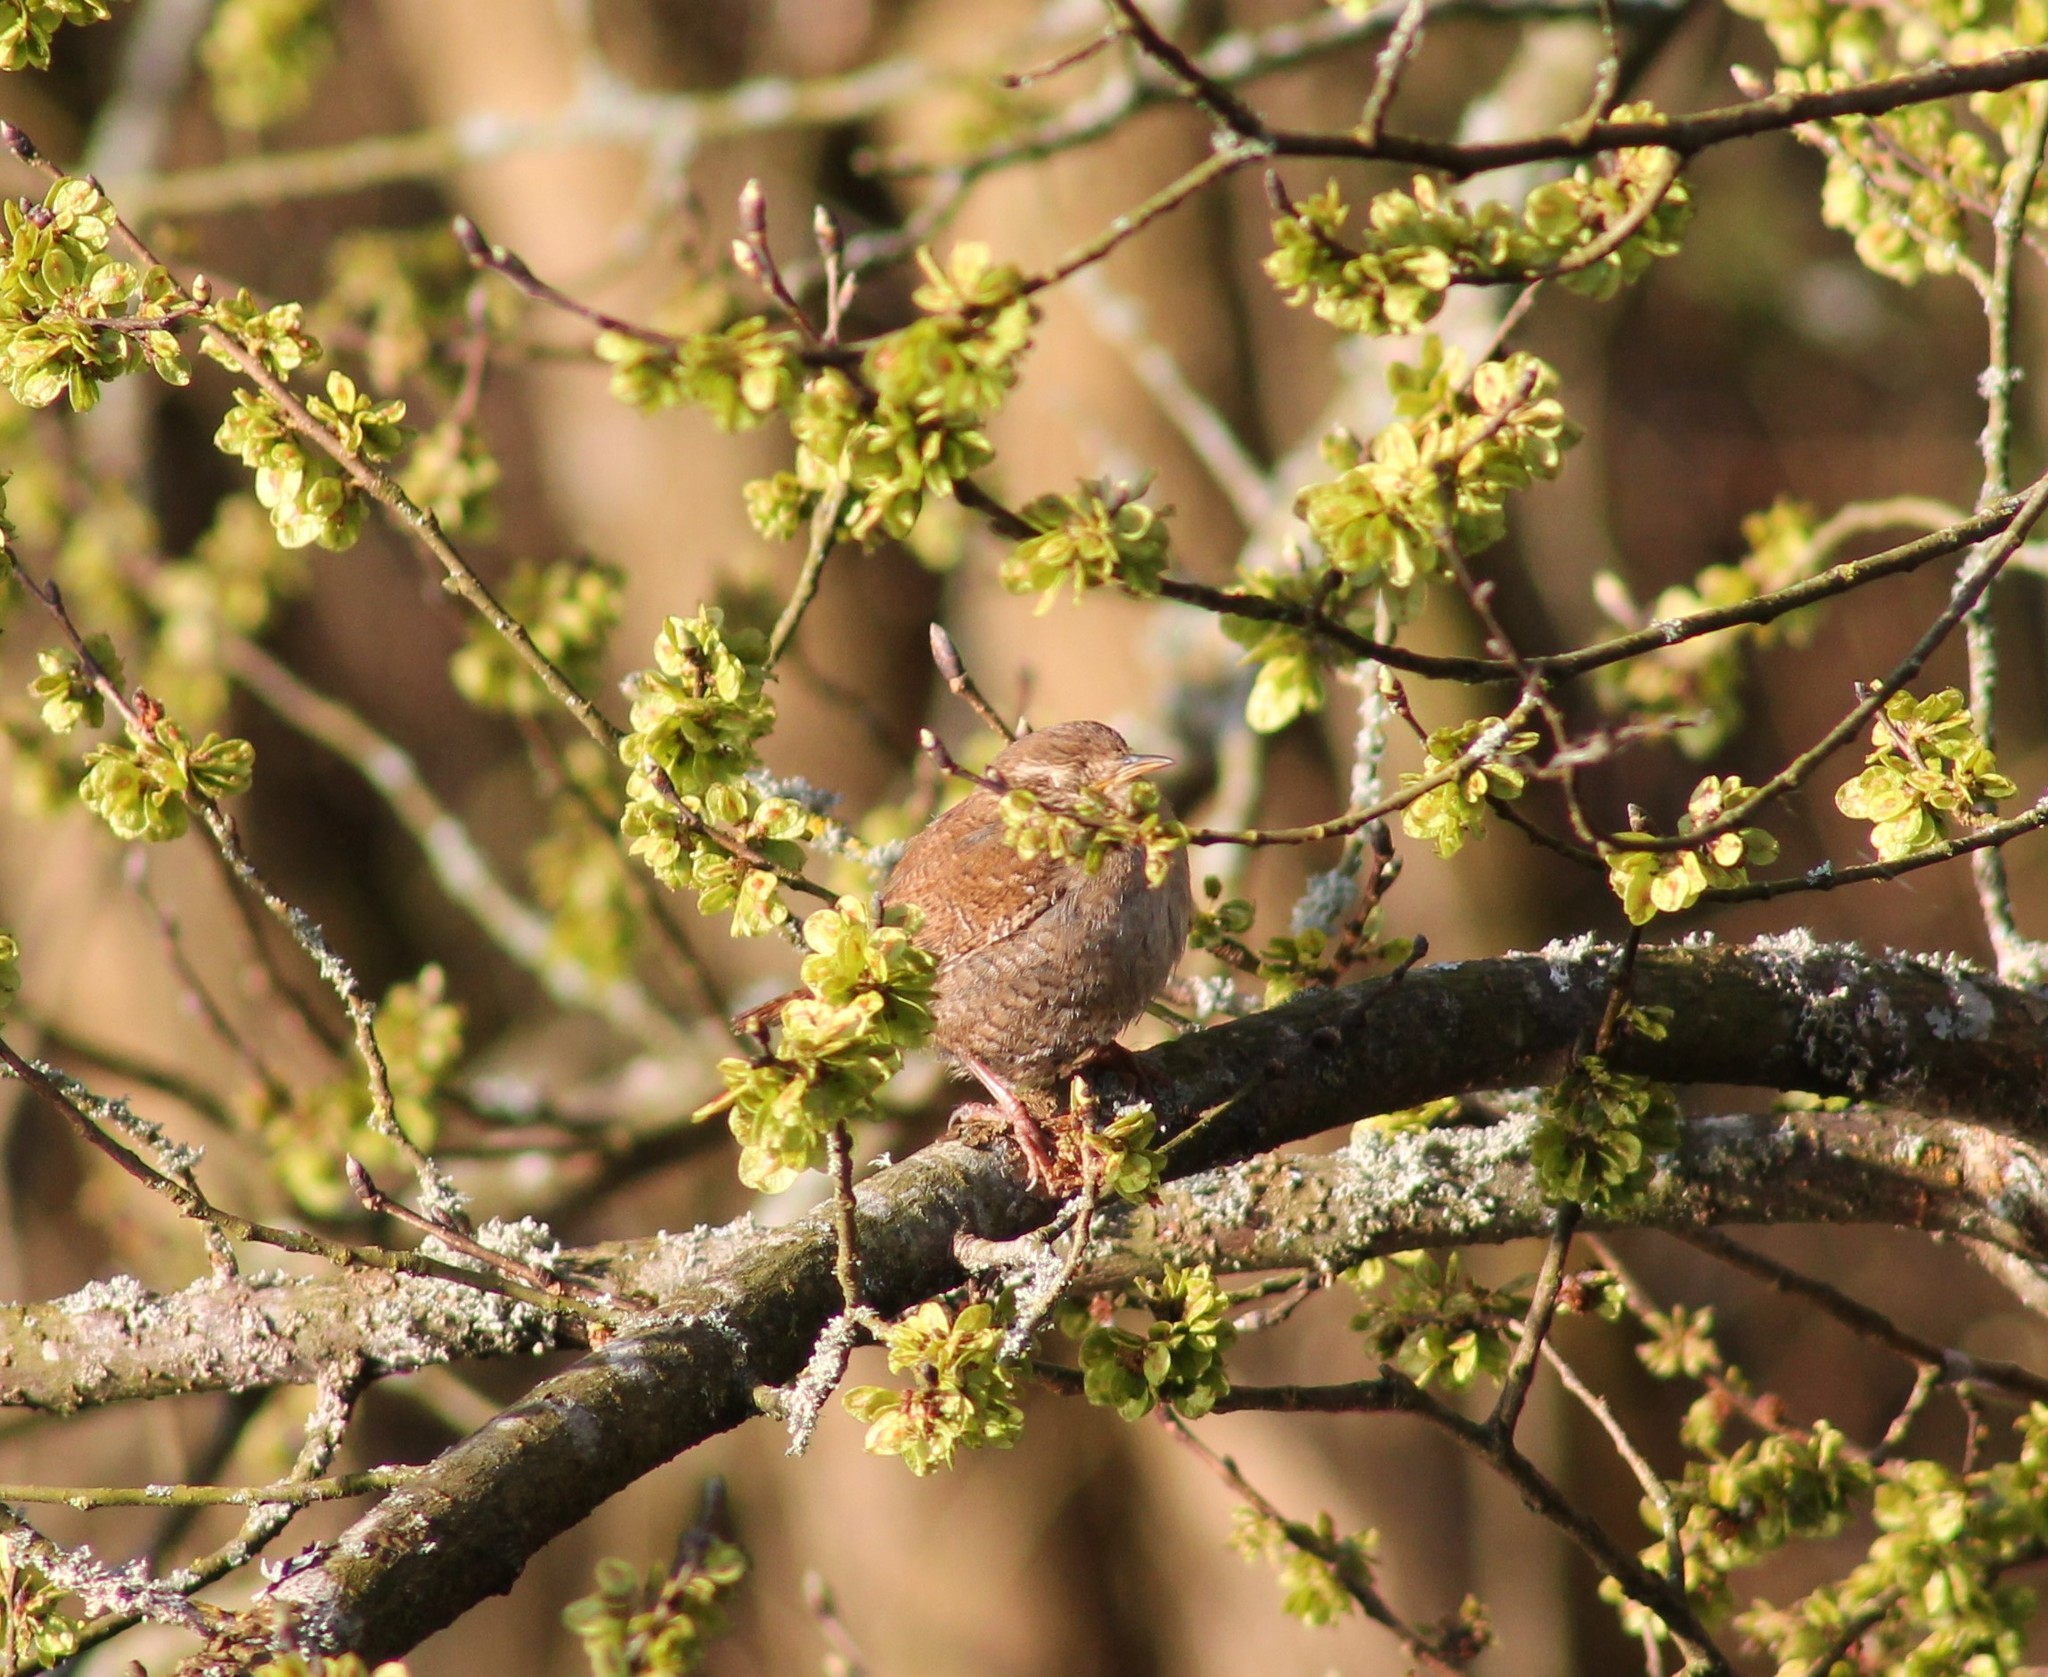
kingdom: Animalia
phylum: Chordata
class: Aves
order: Passeriformes
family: Troglodytidae
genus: Troglodytes
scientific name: Troglodytes troglodytes
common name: Eurasian wren
